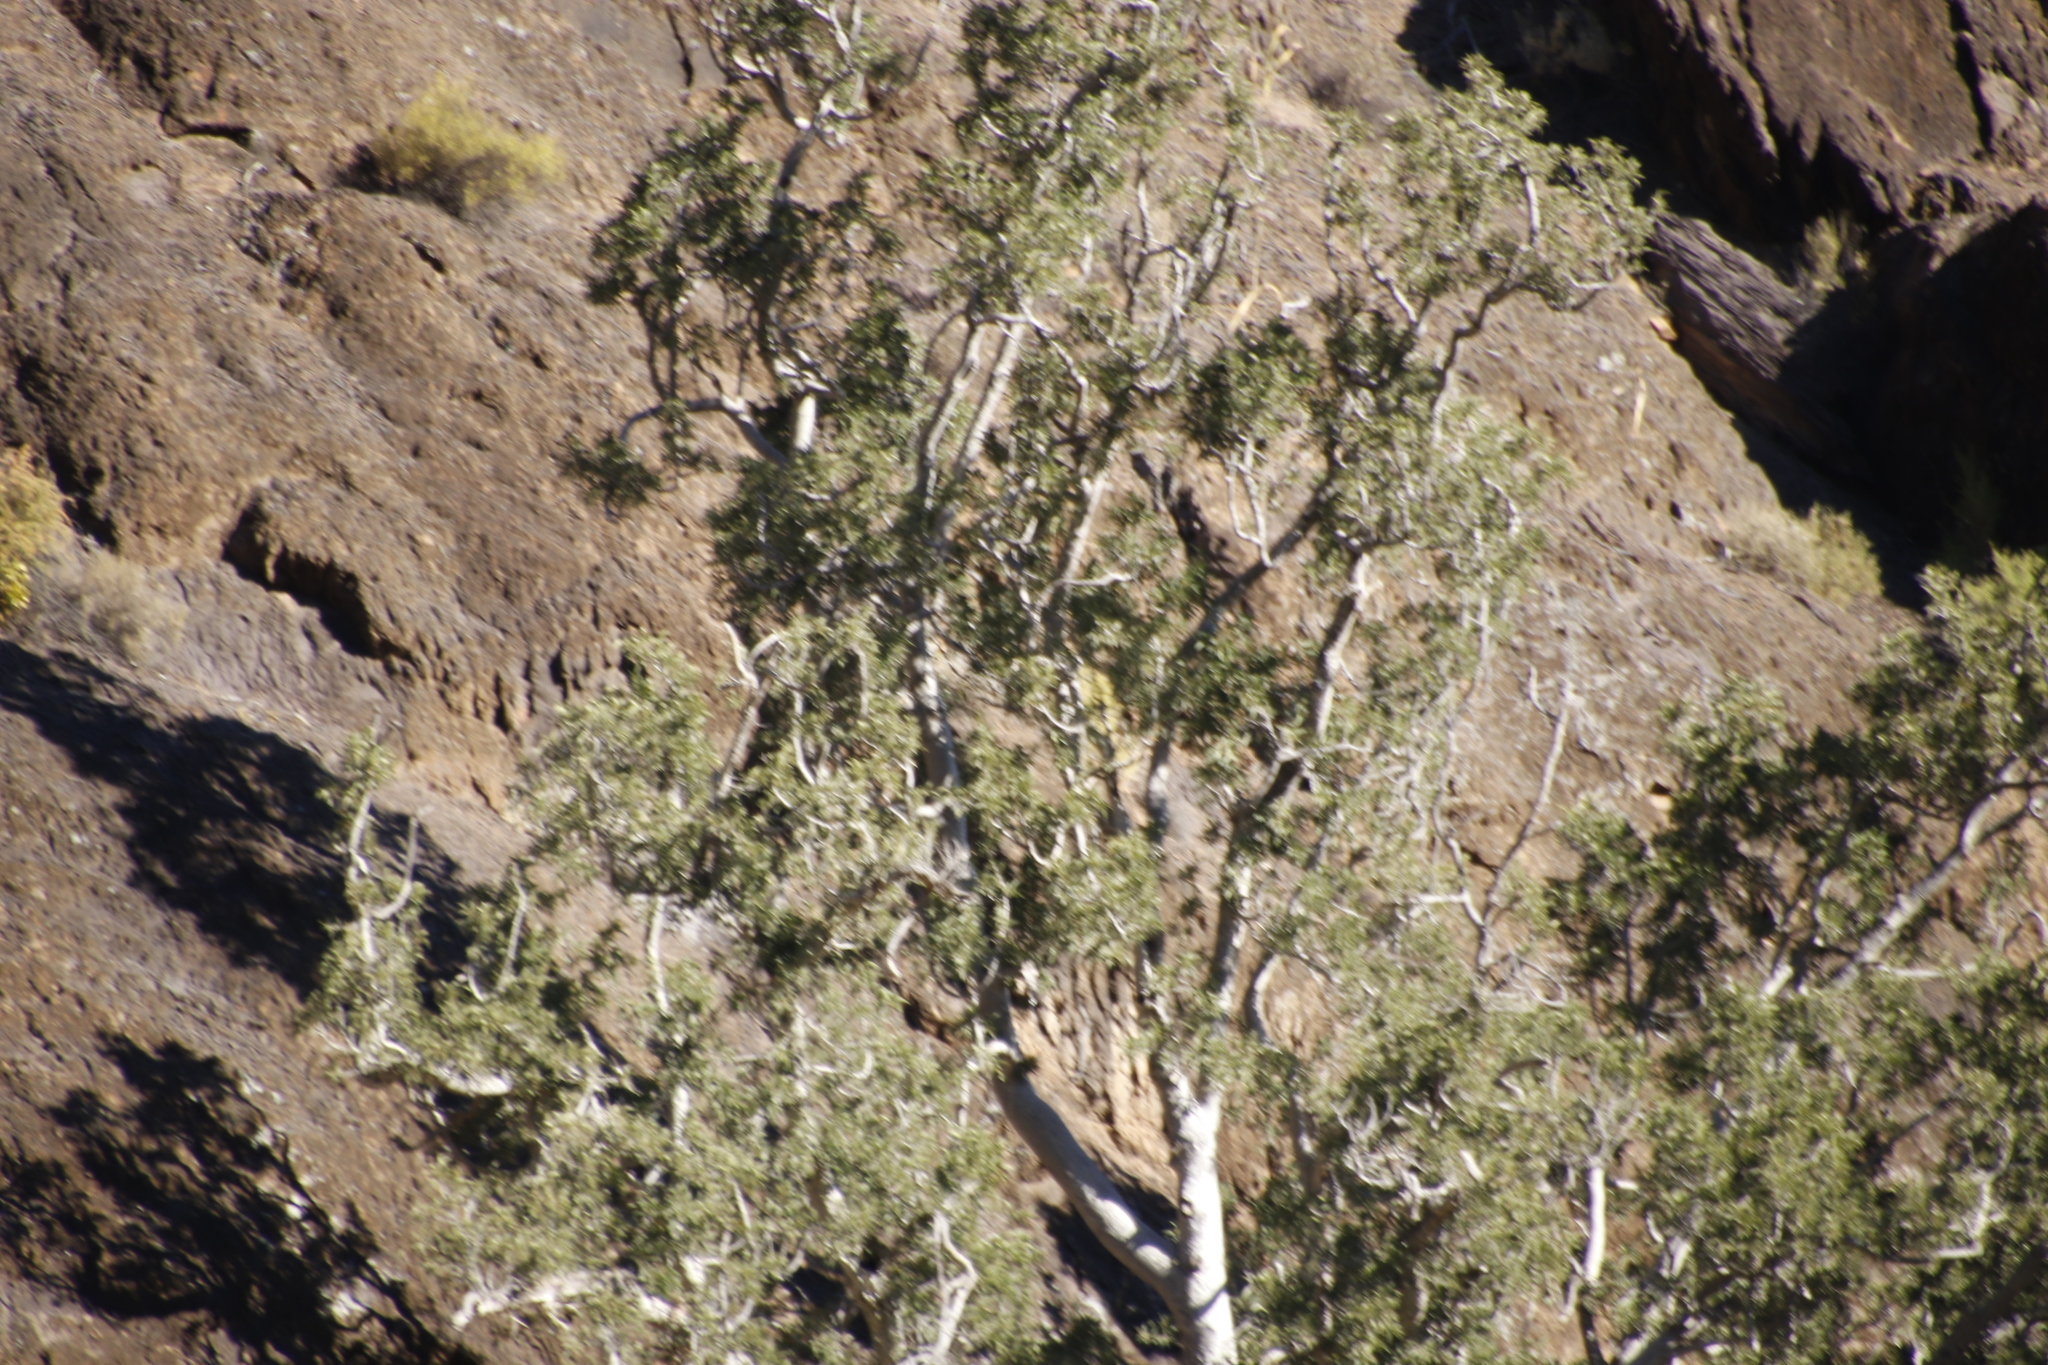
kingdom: Plantae
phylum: Tracheophyta
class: Magnoliopsida
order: Rosales
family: Moraceae
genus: Ficus
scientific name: Ficus cordata
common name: Namaqua rock fig
